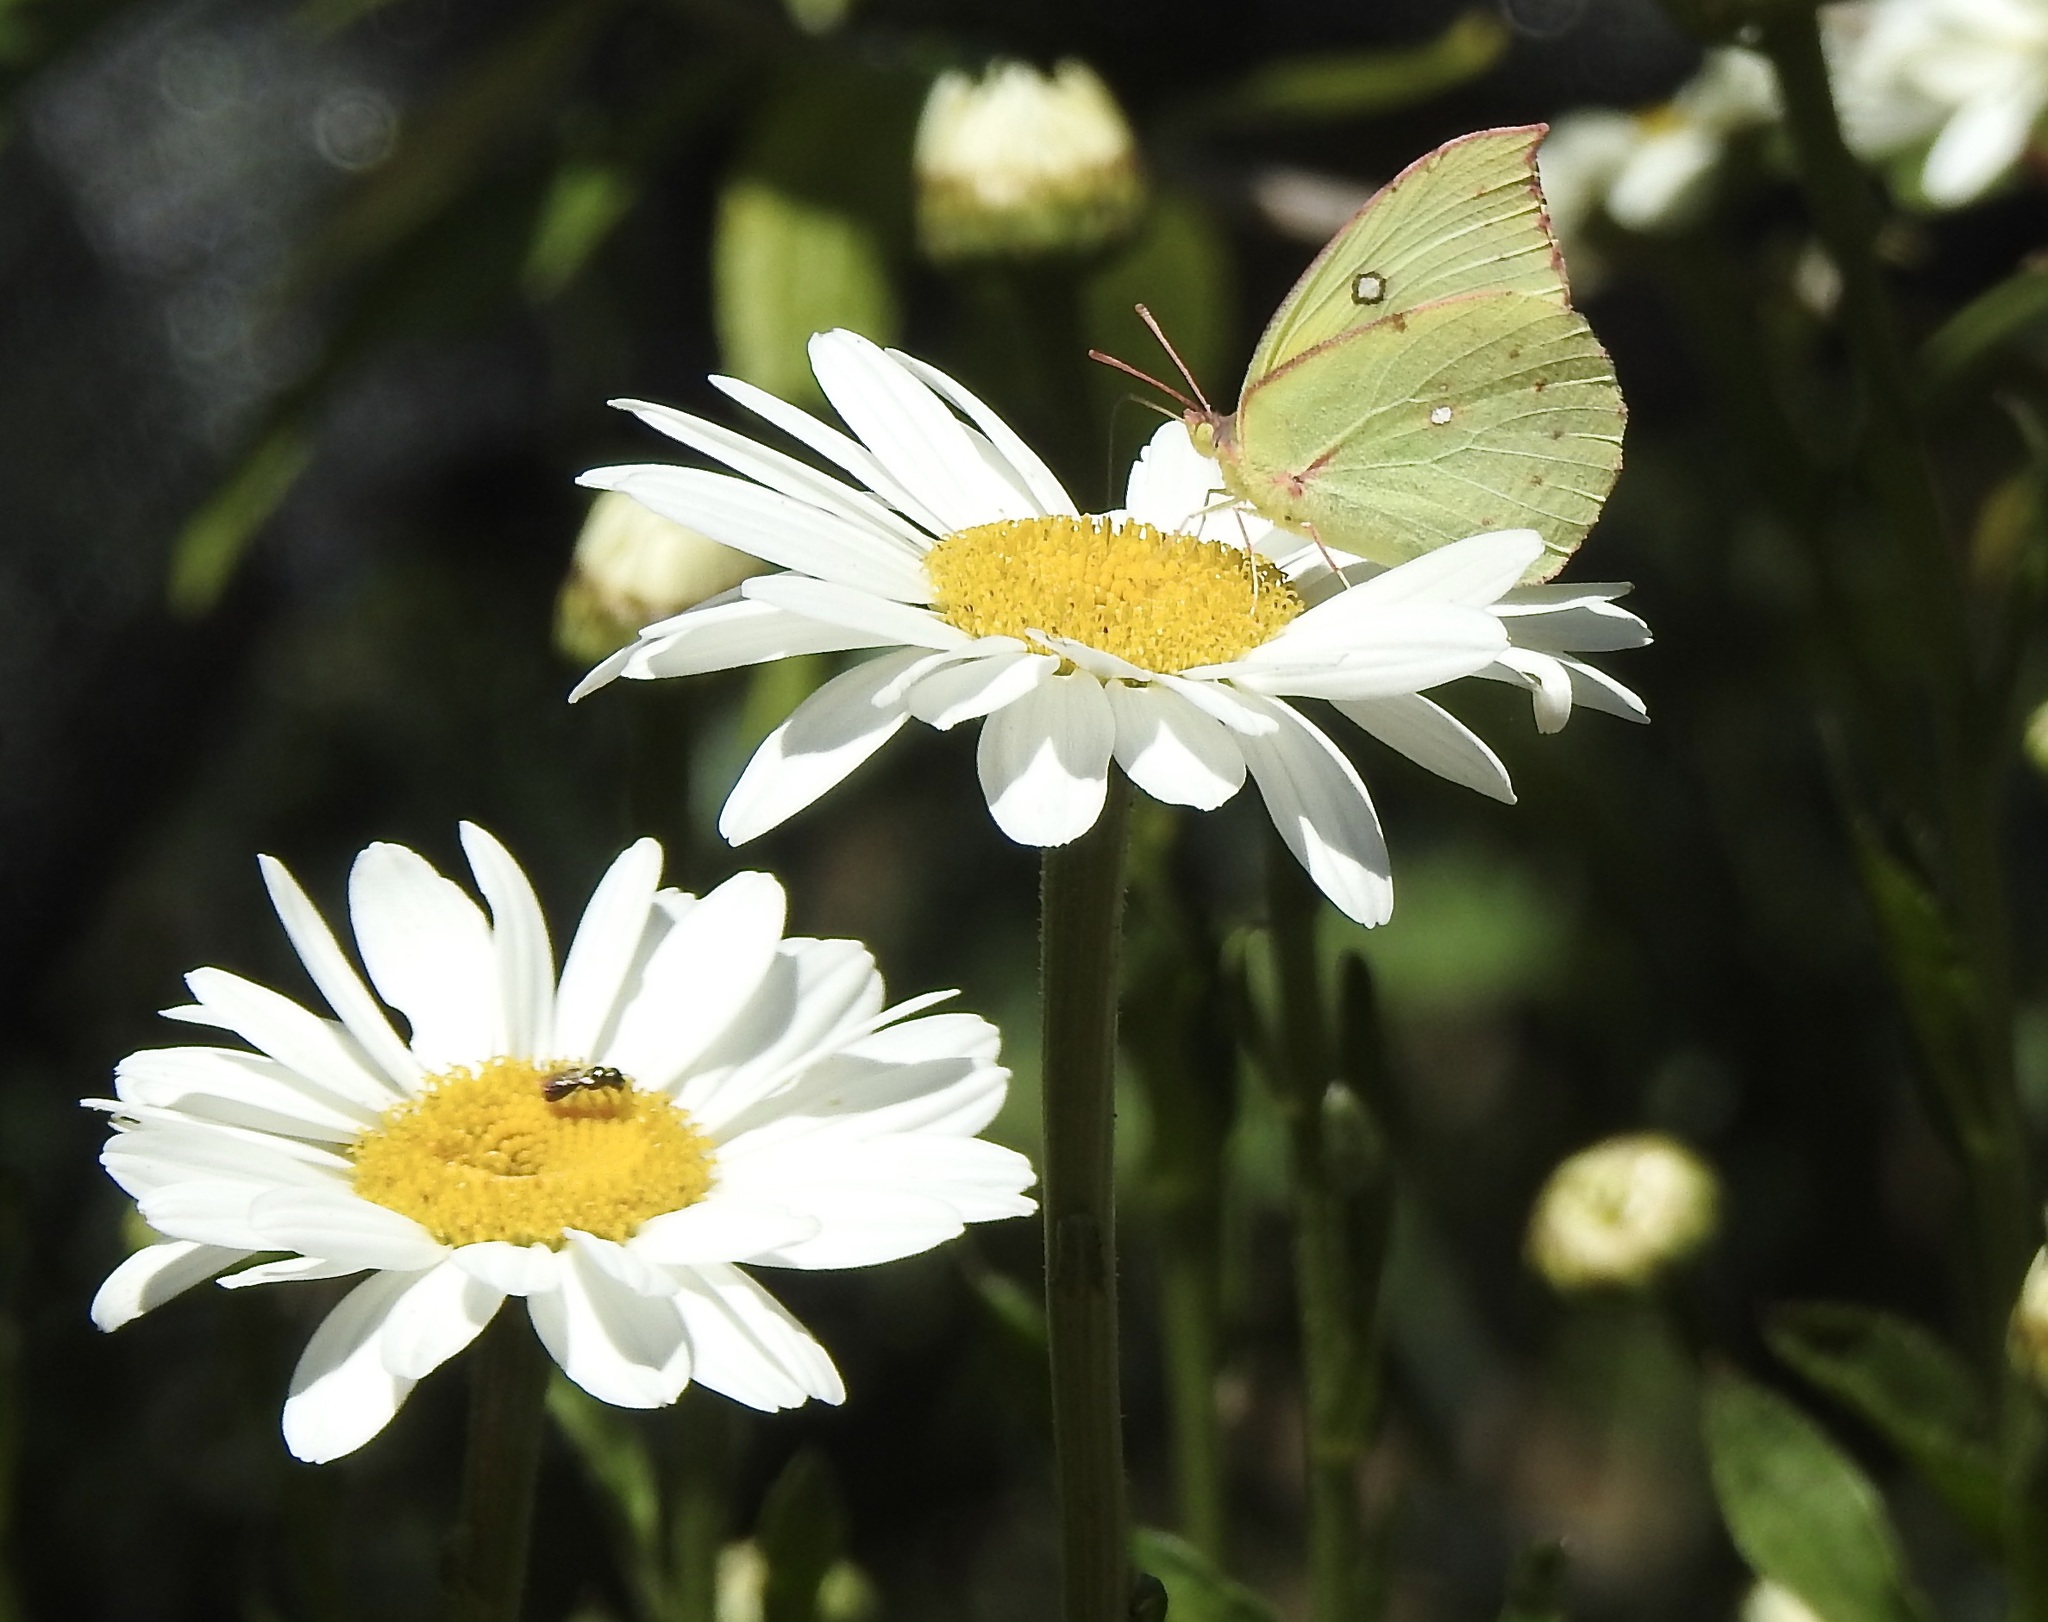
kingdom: Animalia
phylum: Arthropoda
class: Insecta
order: Lepidoptera
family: Pieridae
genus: Zerene
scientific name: Zerene eurydice
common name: California dogface
